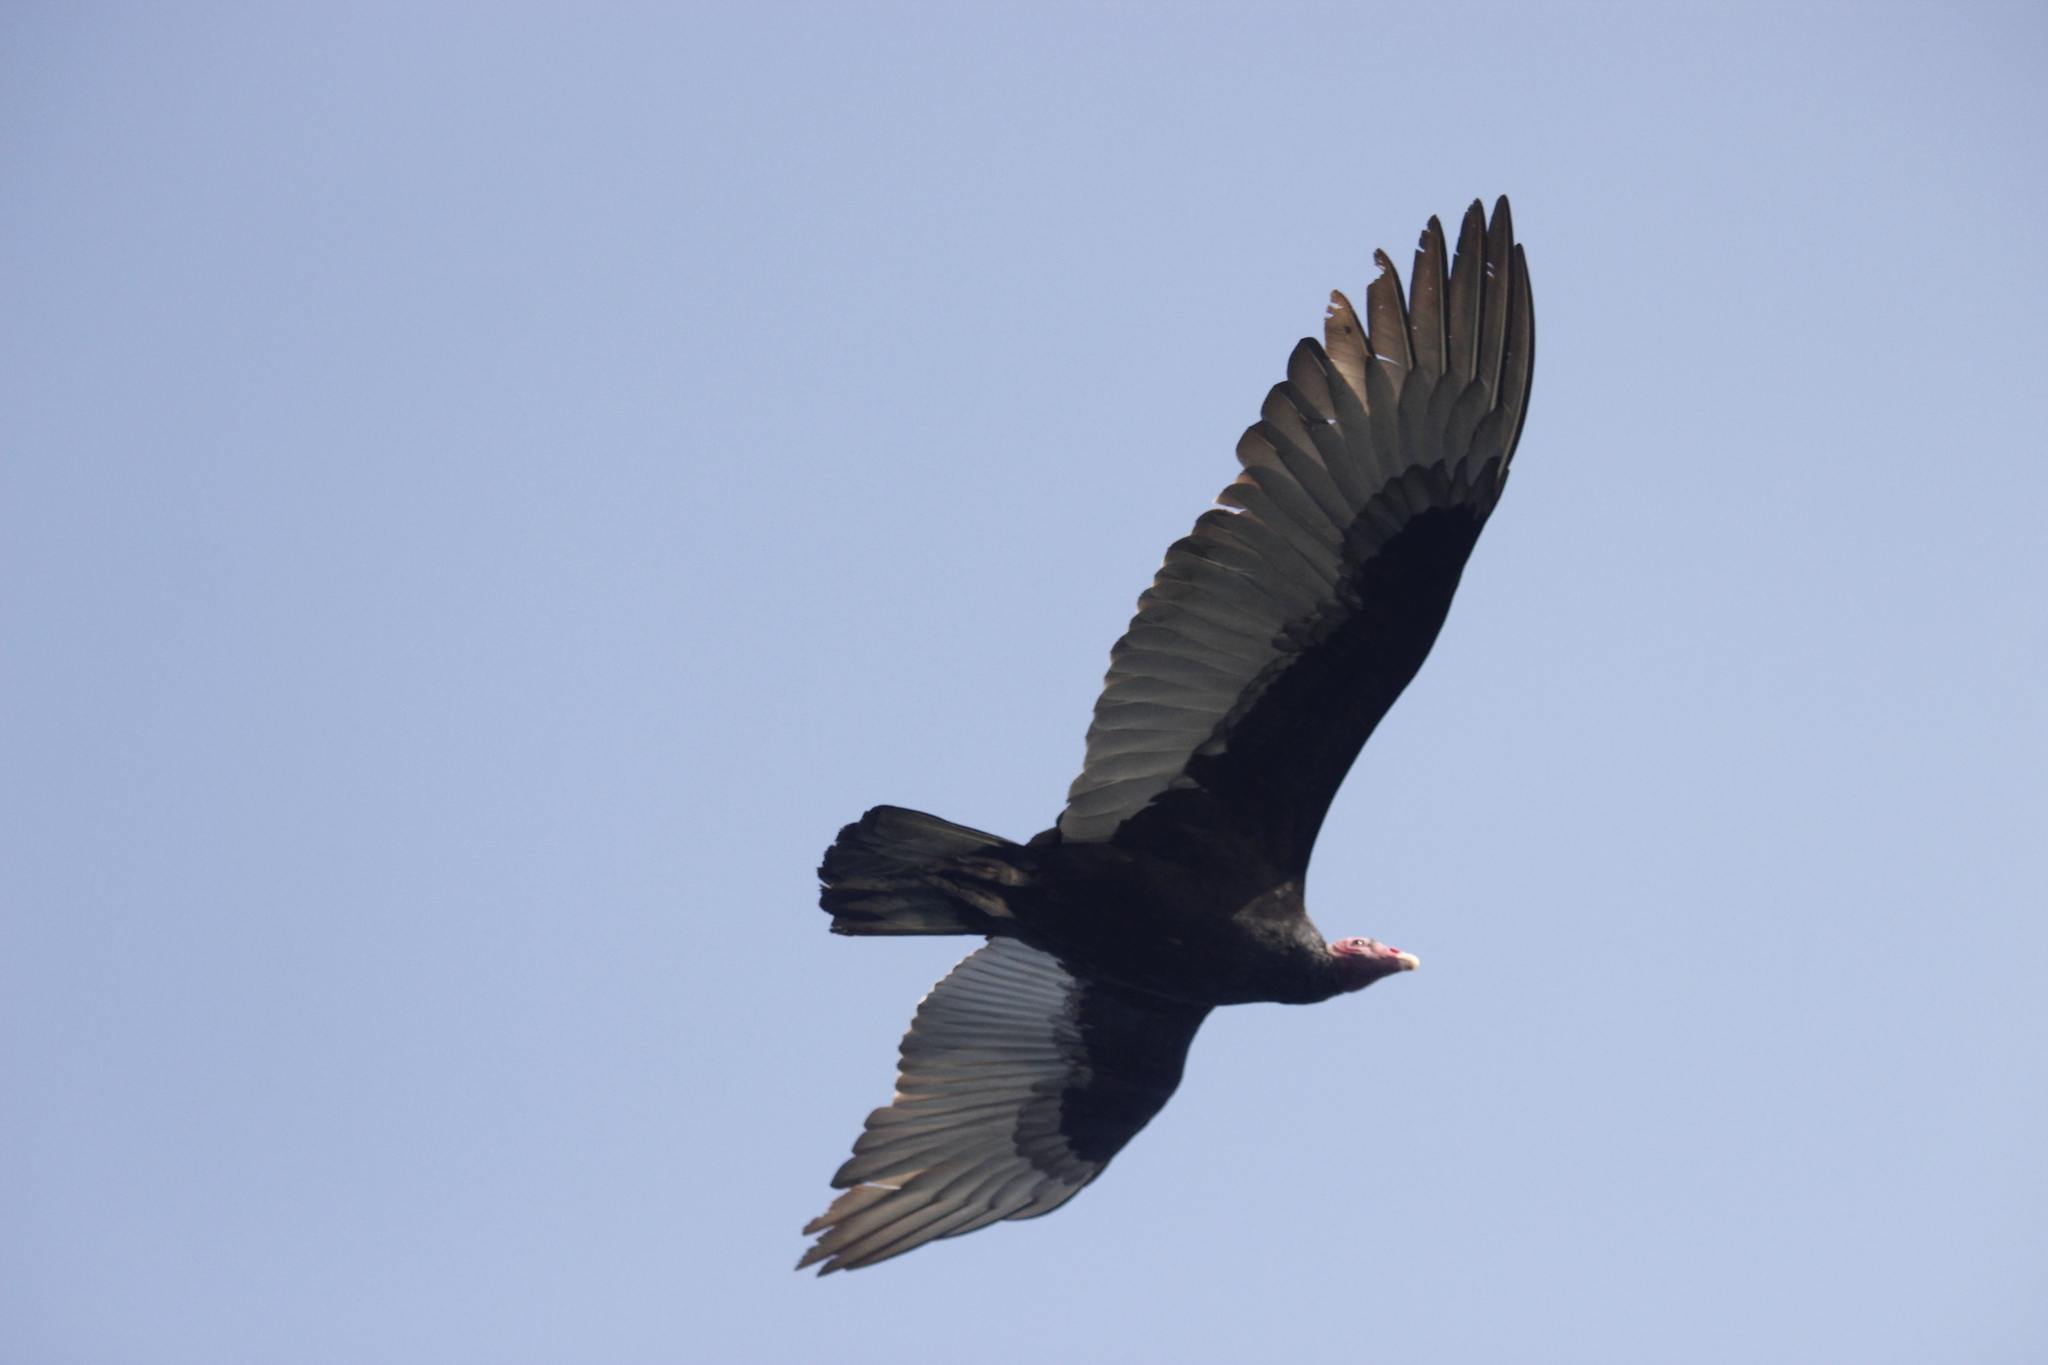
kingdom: Animalia
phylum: Chordata
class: Aves
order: Accipitriformes
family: Cathartidae
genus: Cathartes
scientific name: Cathartes aura
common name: Turkey vulture
